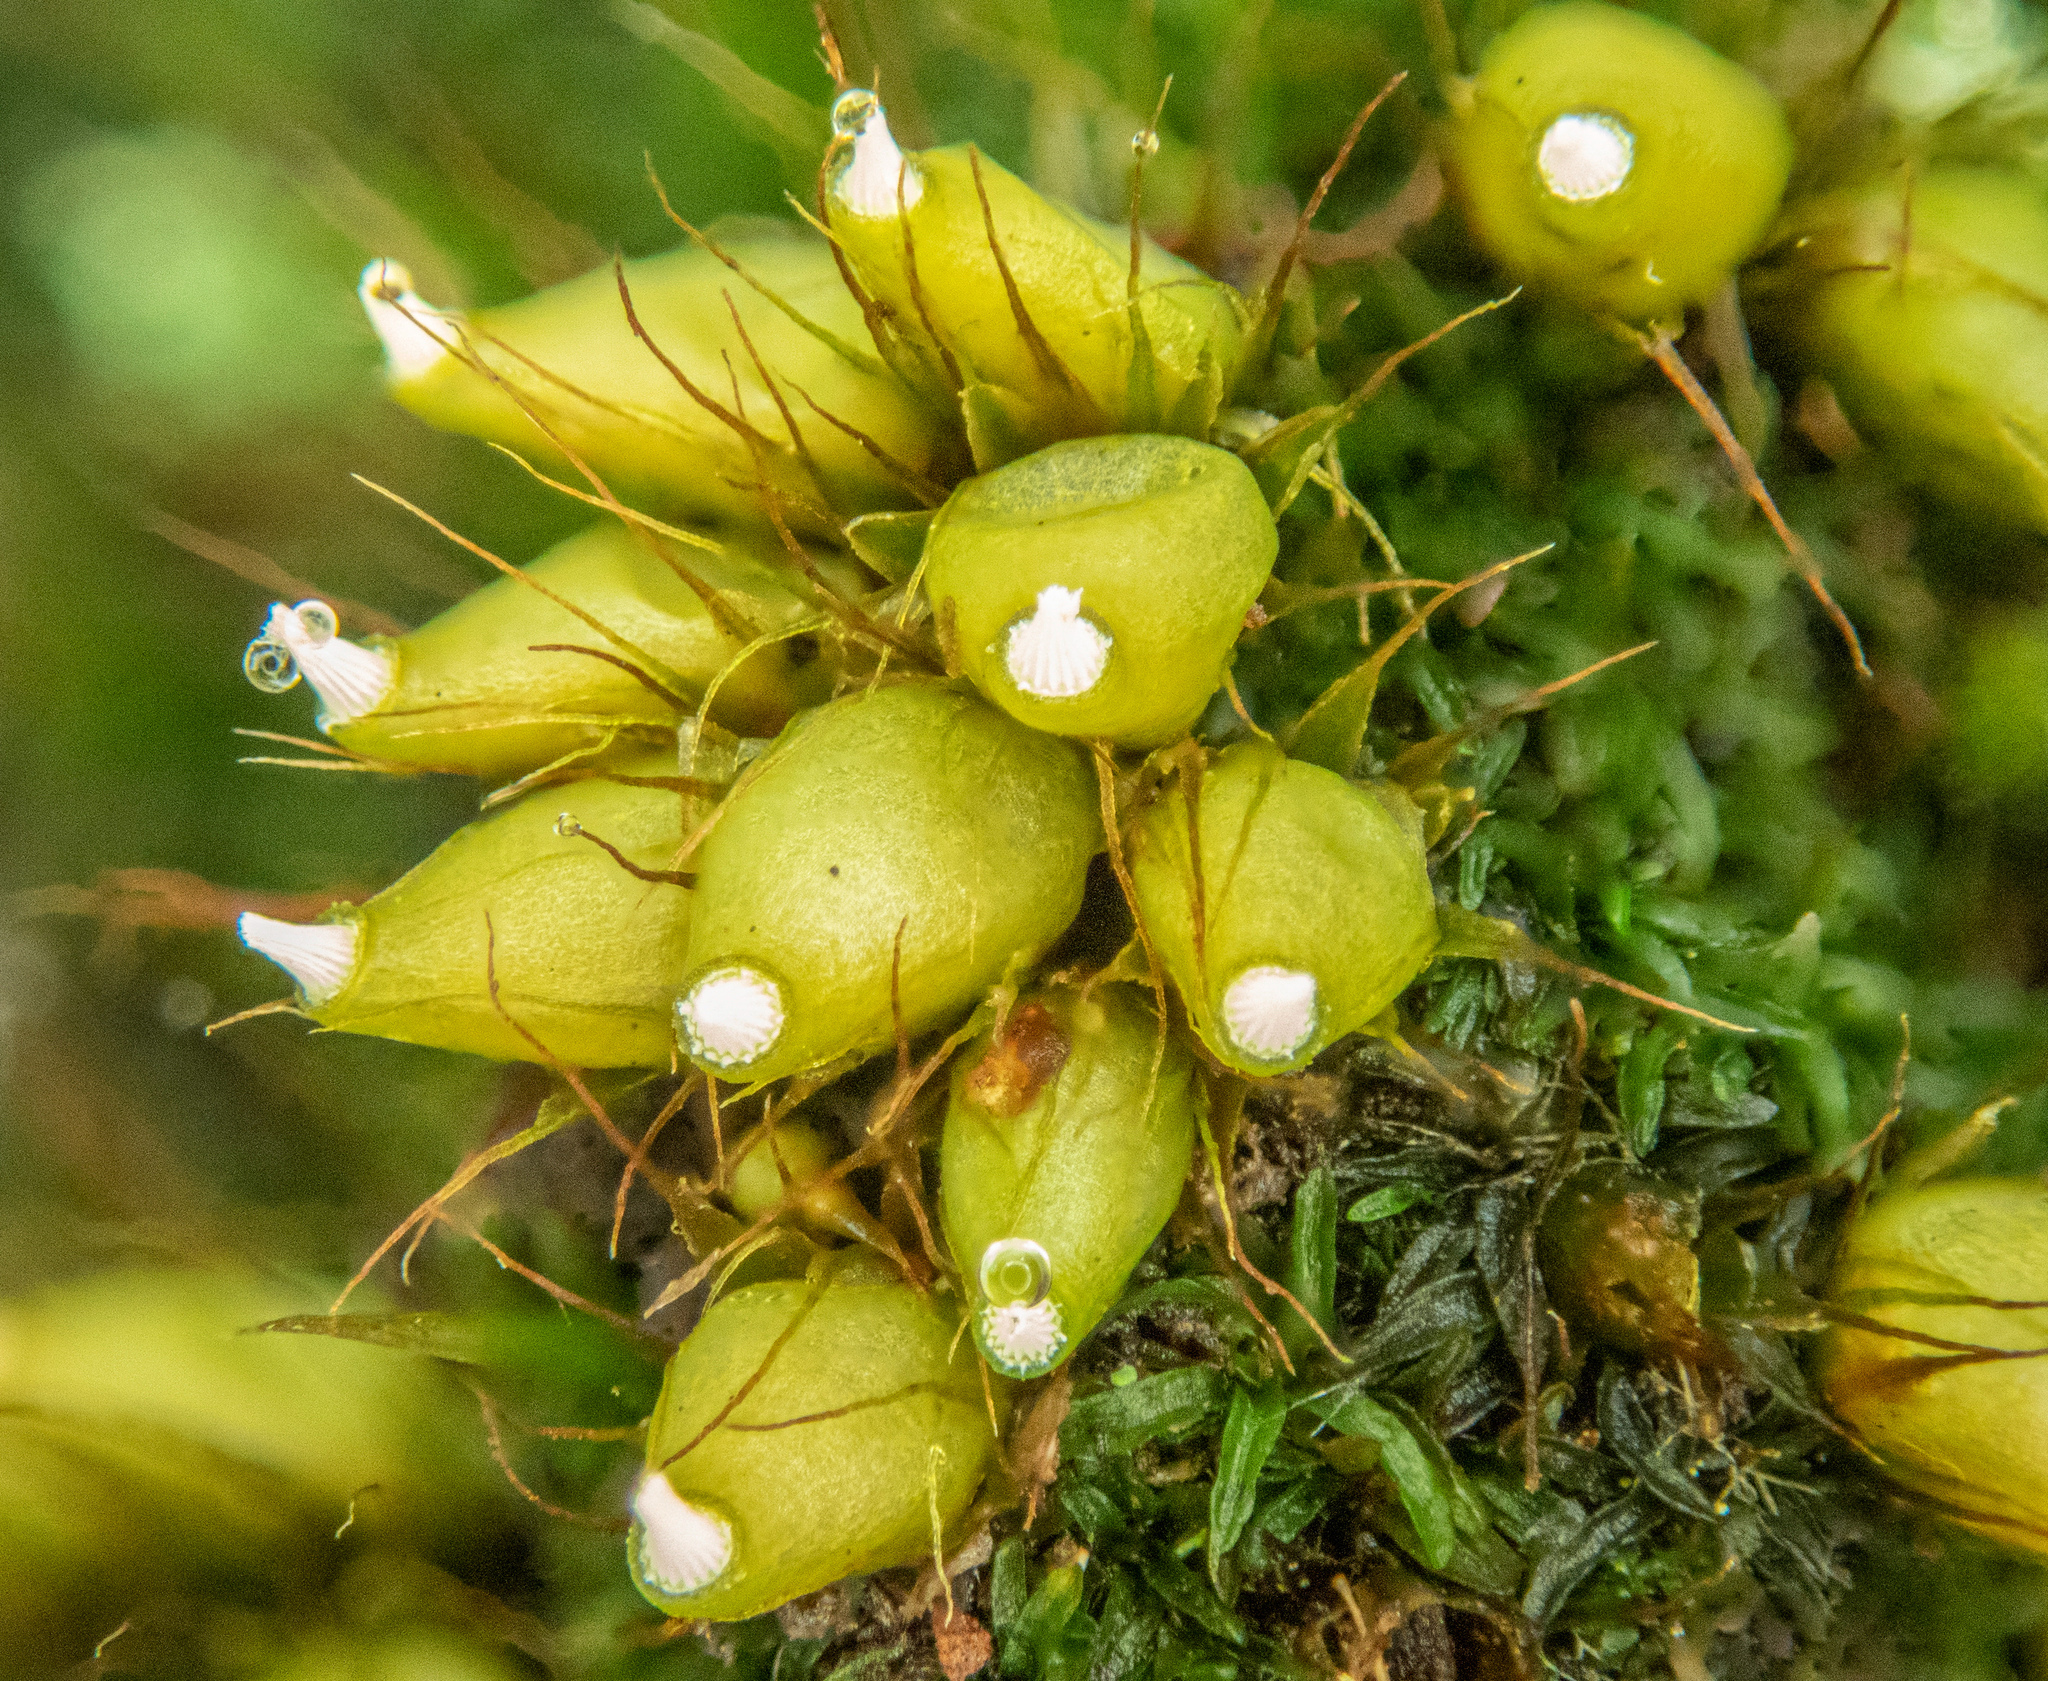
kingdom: Plantae
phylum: Bryophyta
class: Bryopsida
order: Diphysciales
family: Diphysciaceae
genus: Diphyscium
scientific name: Diphyscium foliosum
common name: Nut moss
